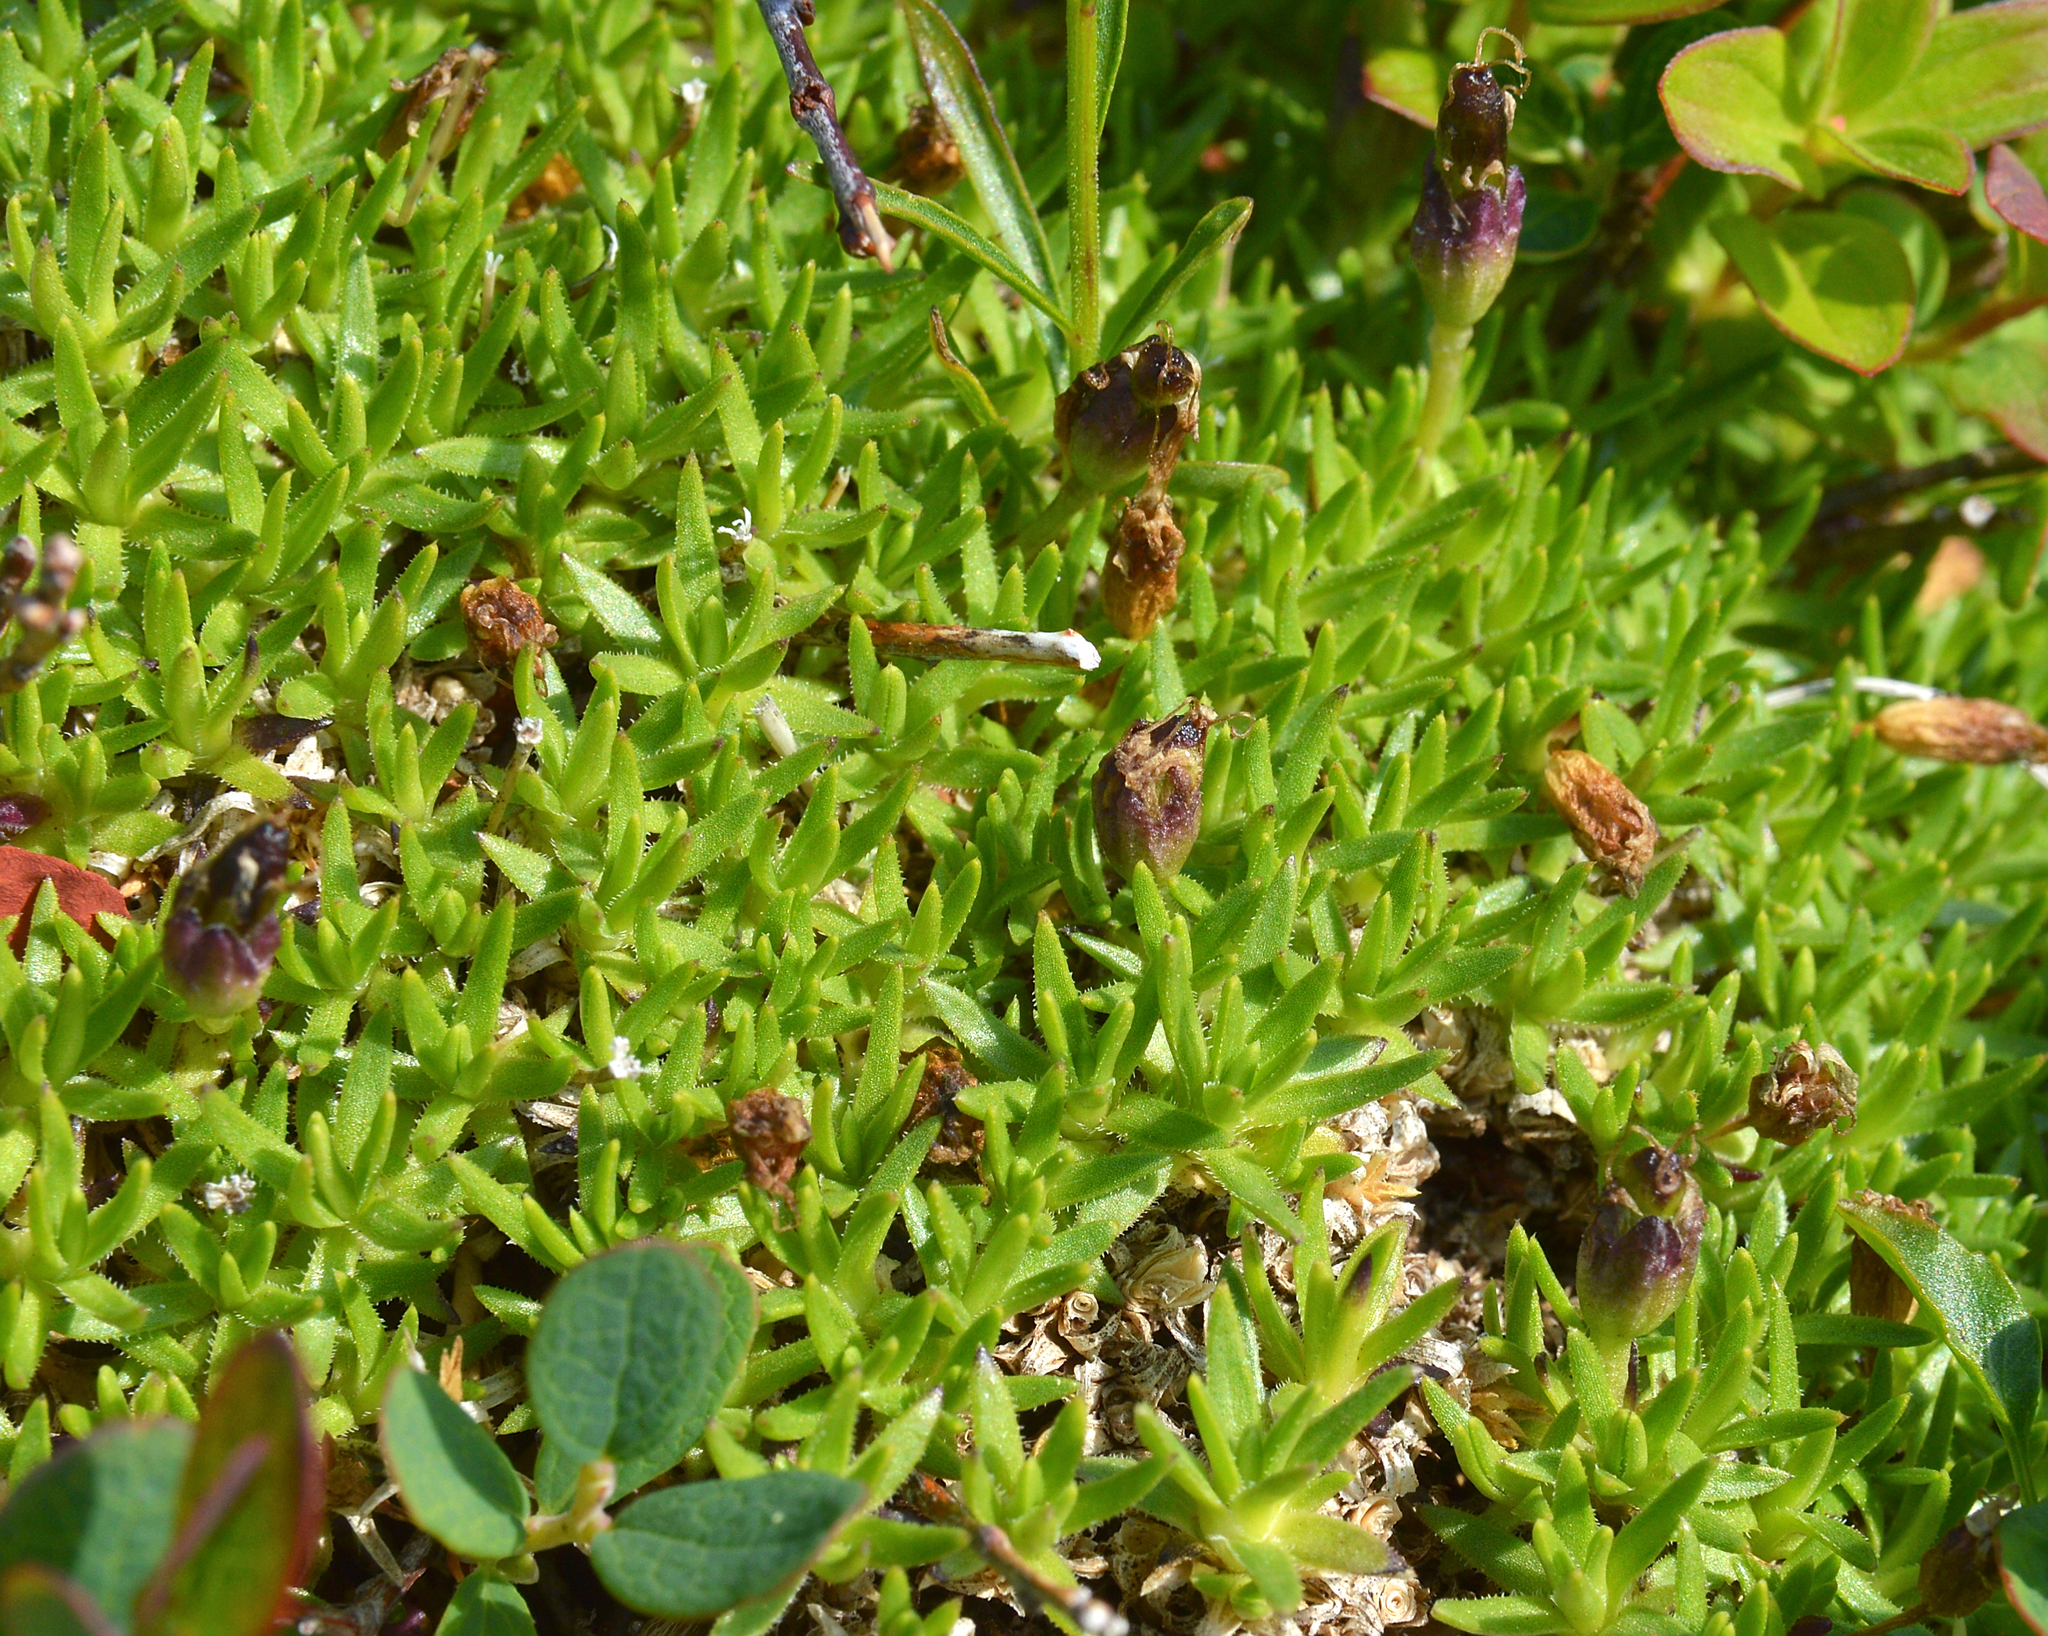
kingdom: Plantae
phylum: Tracheophyta
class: Magnoliopsida
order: Caryophyllales
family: Caryophyllaceae
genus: Silene
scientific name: Silene acaulis
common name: Moss campion
